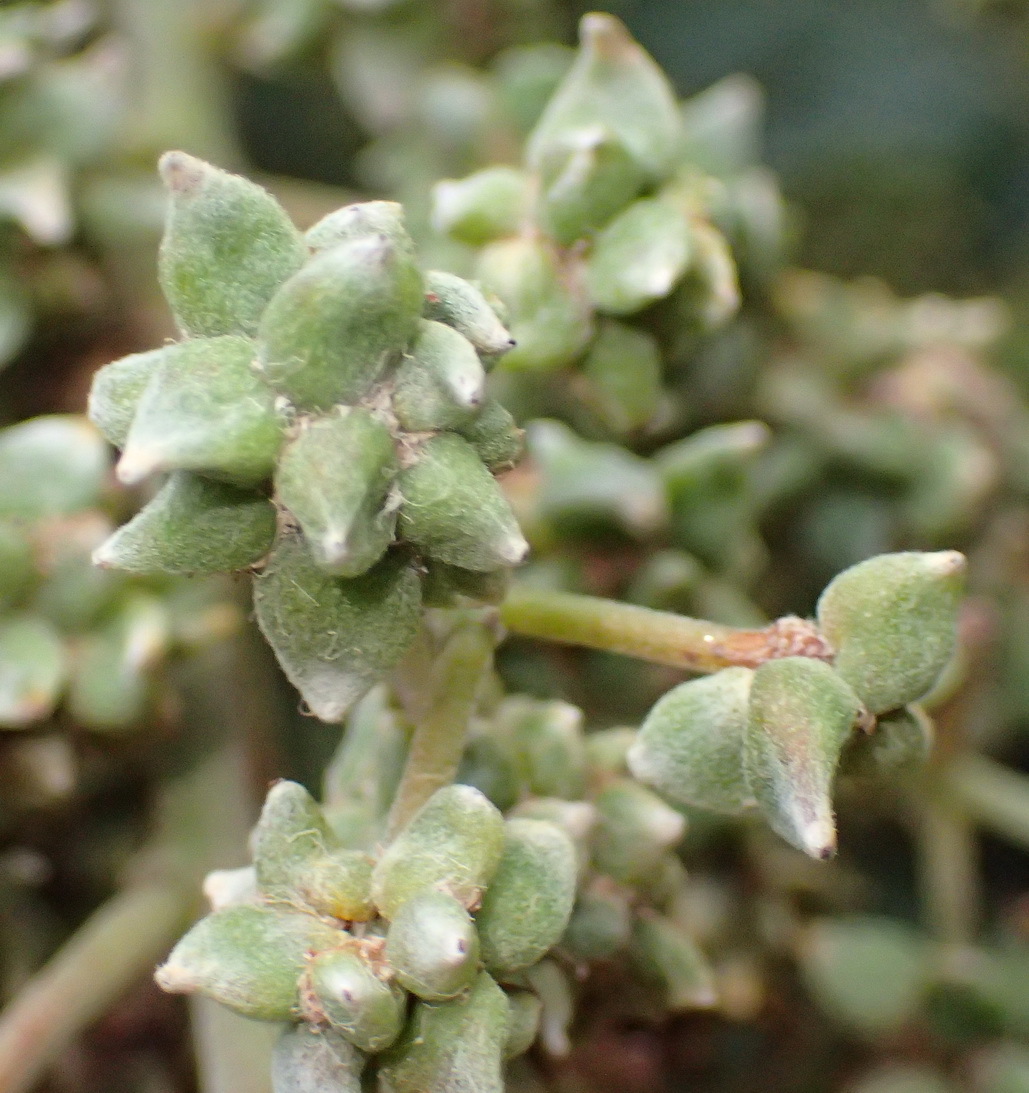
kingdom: Animalia
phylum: Arthropoda
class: Insecta
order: Diptera
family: Cecidomyiidae
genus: Dasineura
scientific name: Dasineura rubiformis
